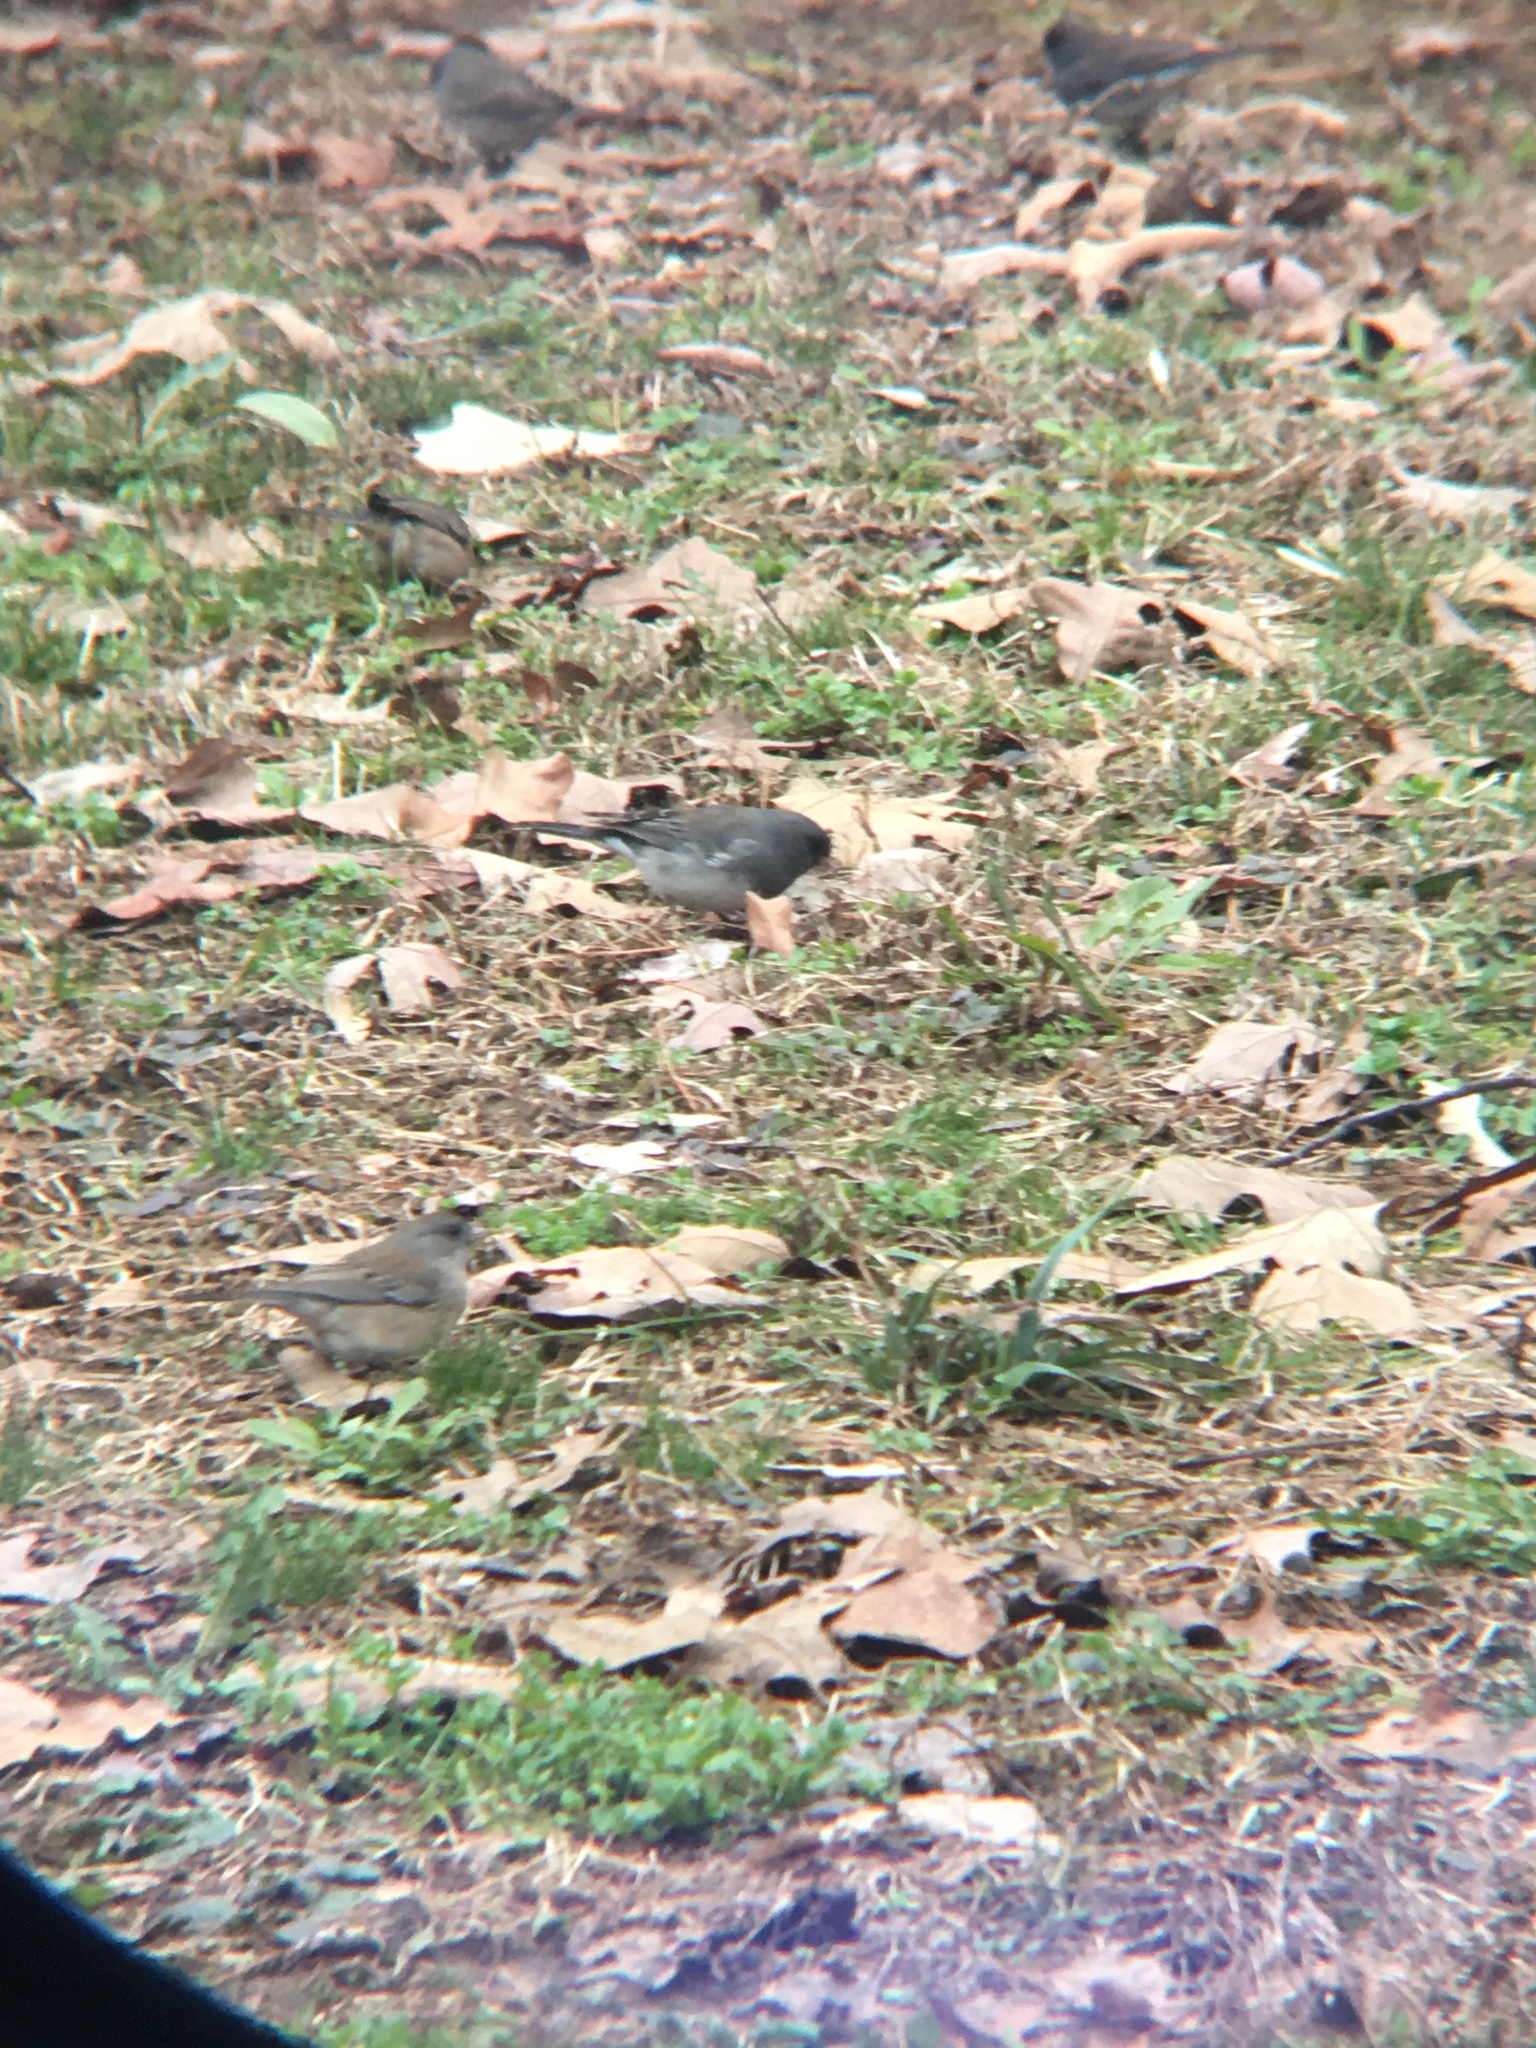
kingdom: Animalia
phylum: Chordata
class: Aves
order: Passeriformes
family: Passerellidae
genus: Junco
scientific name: Junco hyemalis
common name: Dark-eyed junco
